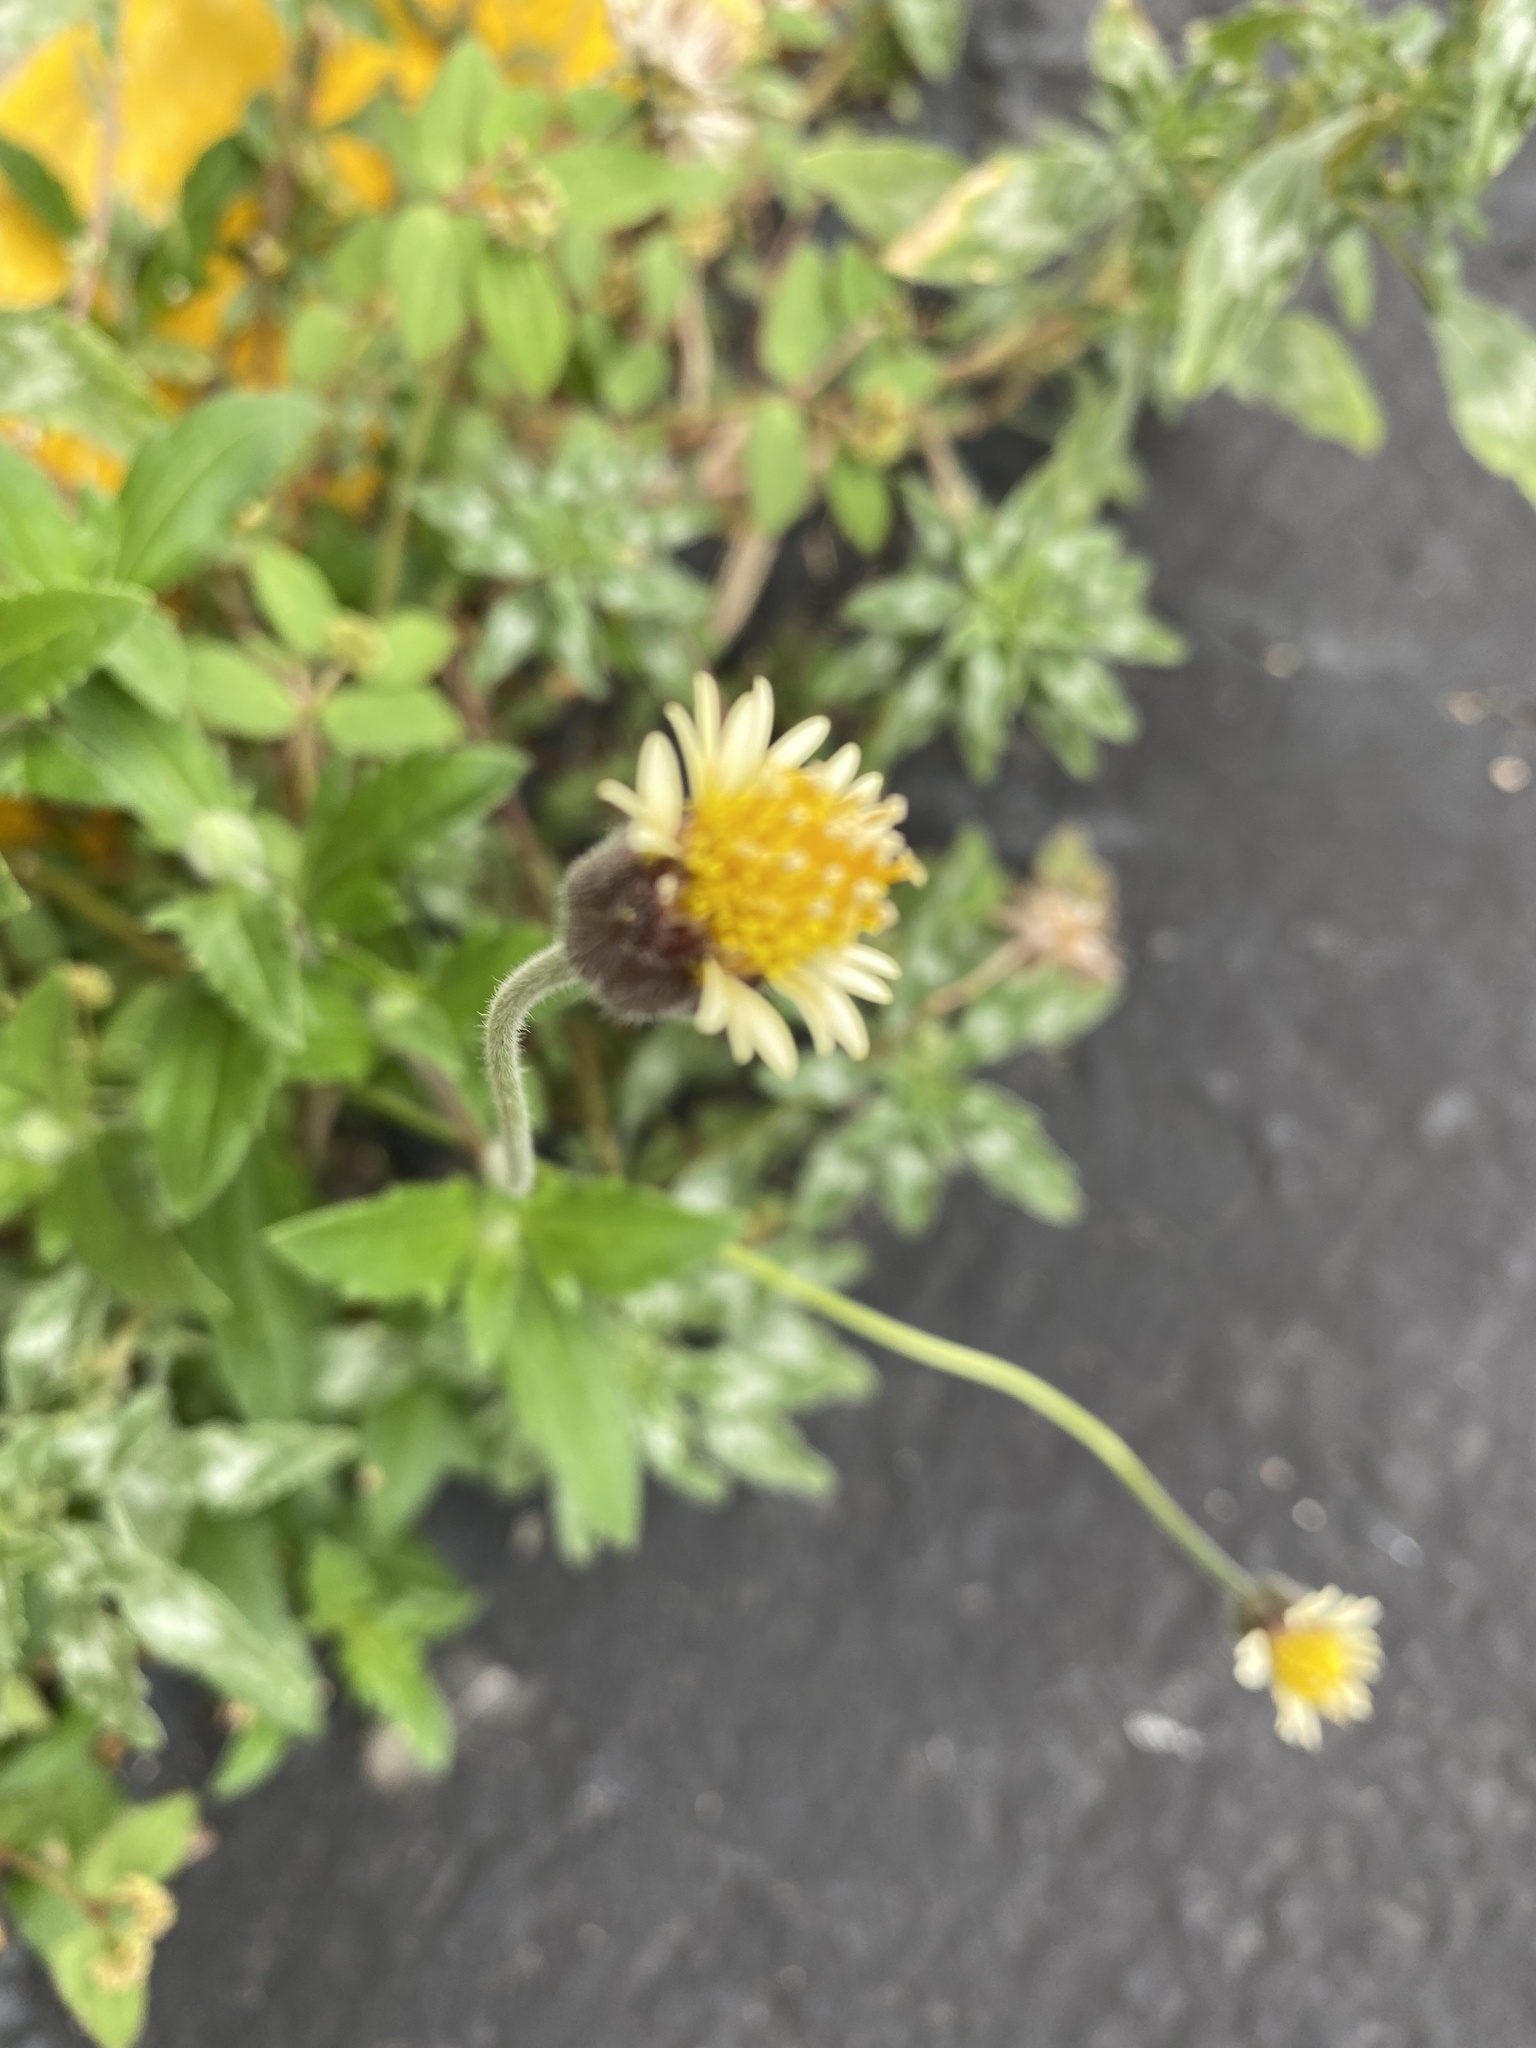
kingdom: Plantae
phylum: Tracheophyta
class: Magnoliopsida
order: Asterales
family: Asteraceae
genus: Tridax
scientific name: Tridax procumbens
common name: Coatbuttons
